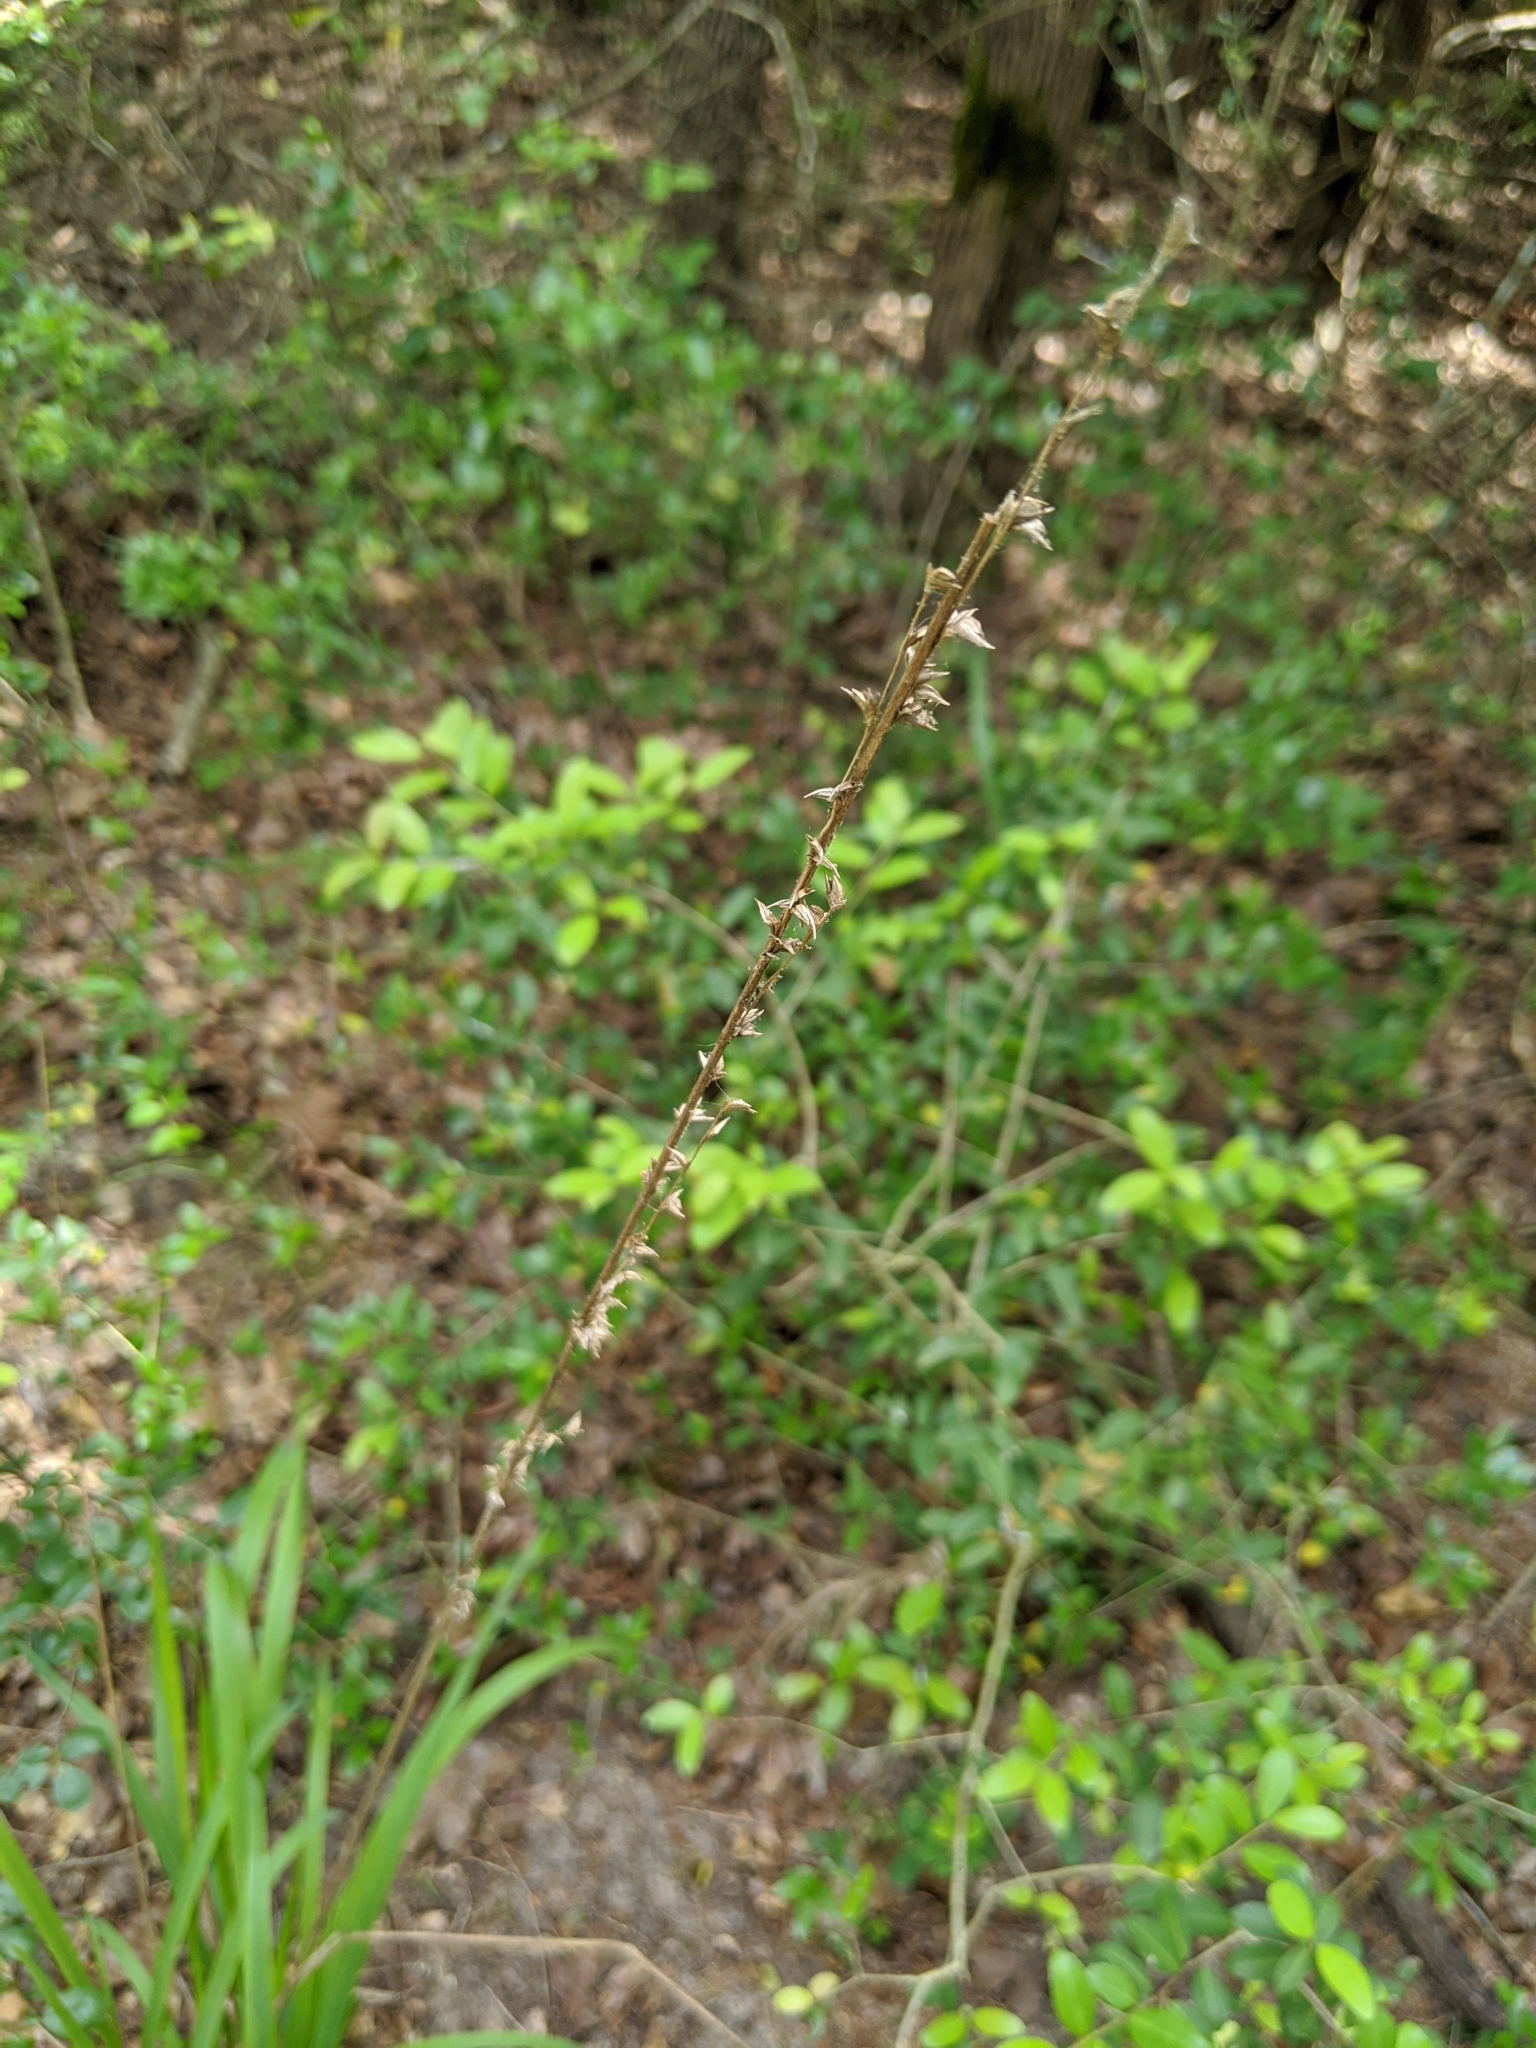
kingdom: Plantae
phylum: Tracheophyta
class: Liliopsida
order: Poales
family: Poaceae
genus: Chasmanthium
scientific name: Chasmanthium laxum
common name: Slender chasmanthium
